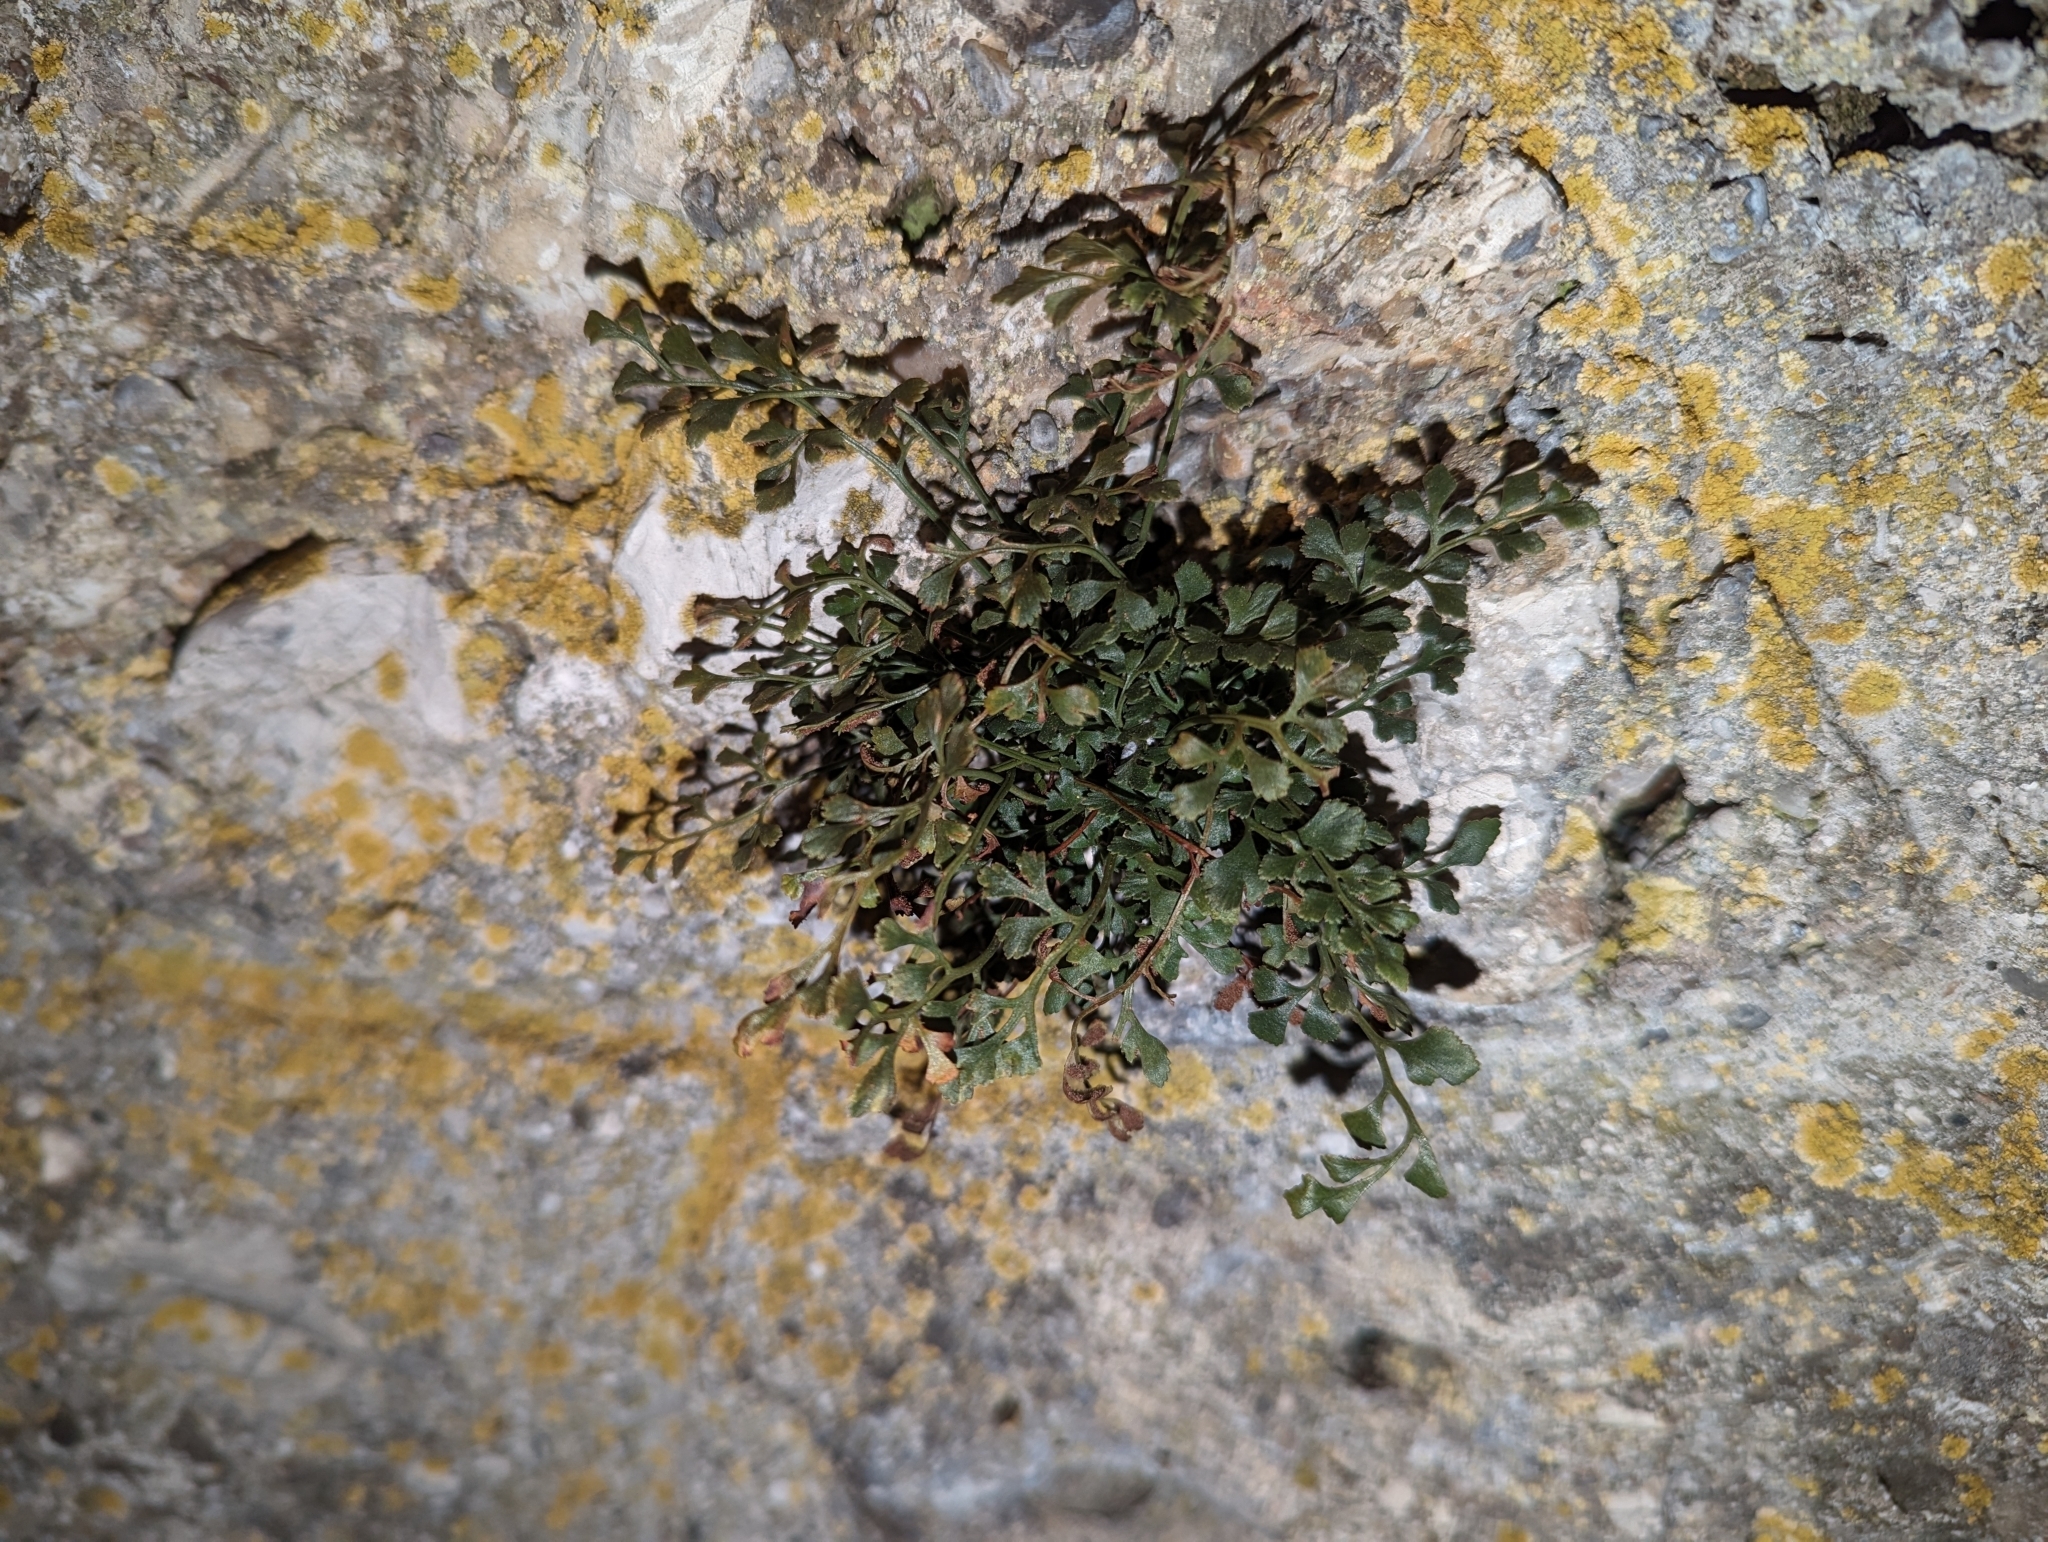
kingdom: Plantae
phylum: Tracheophyta
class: Polypodiopsida
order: Polypodiales
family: Aspleniaceae
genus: Asplenium
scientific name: Asplenium ruta-muraria
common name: Wall-rue
